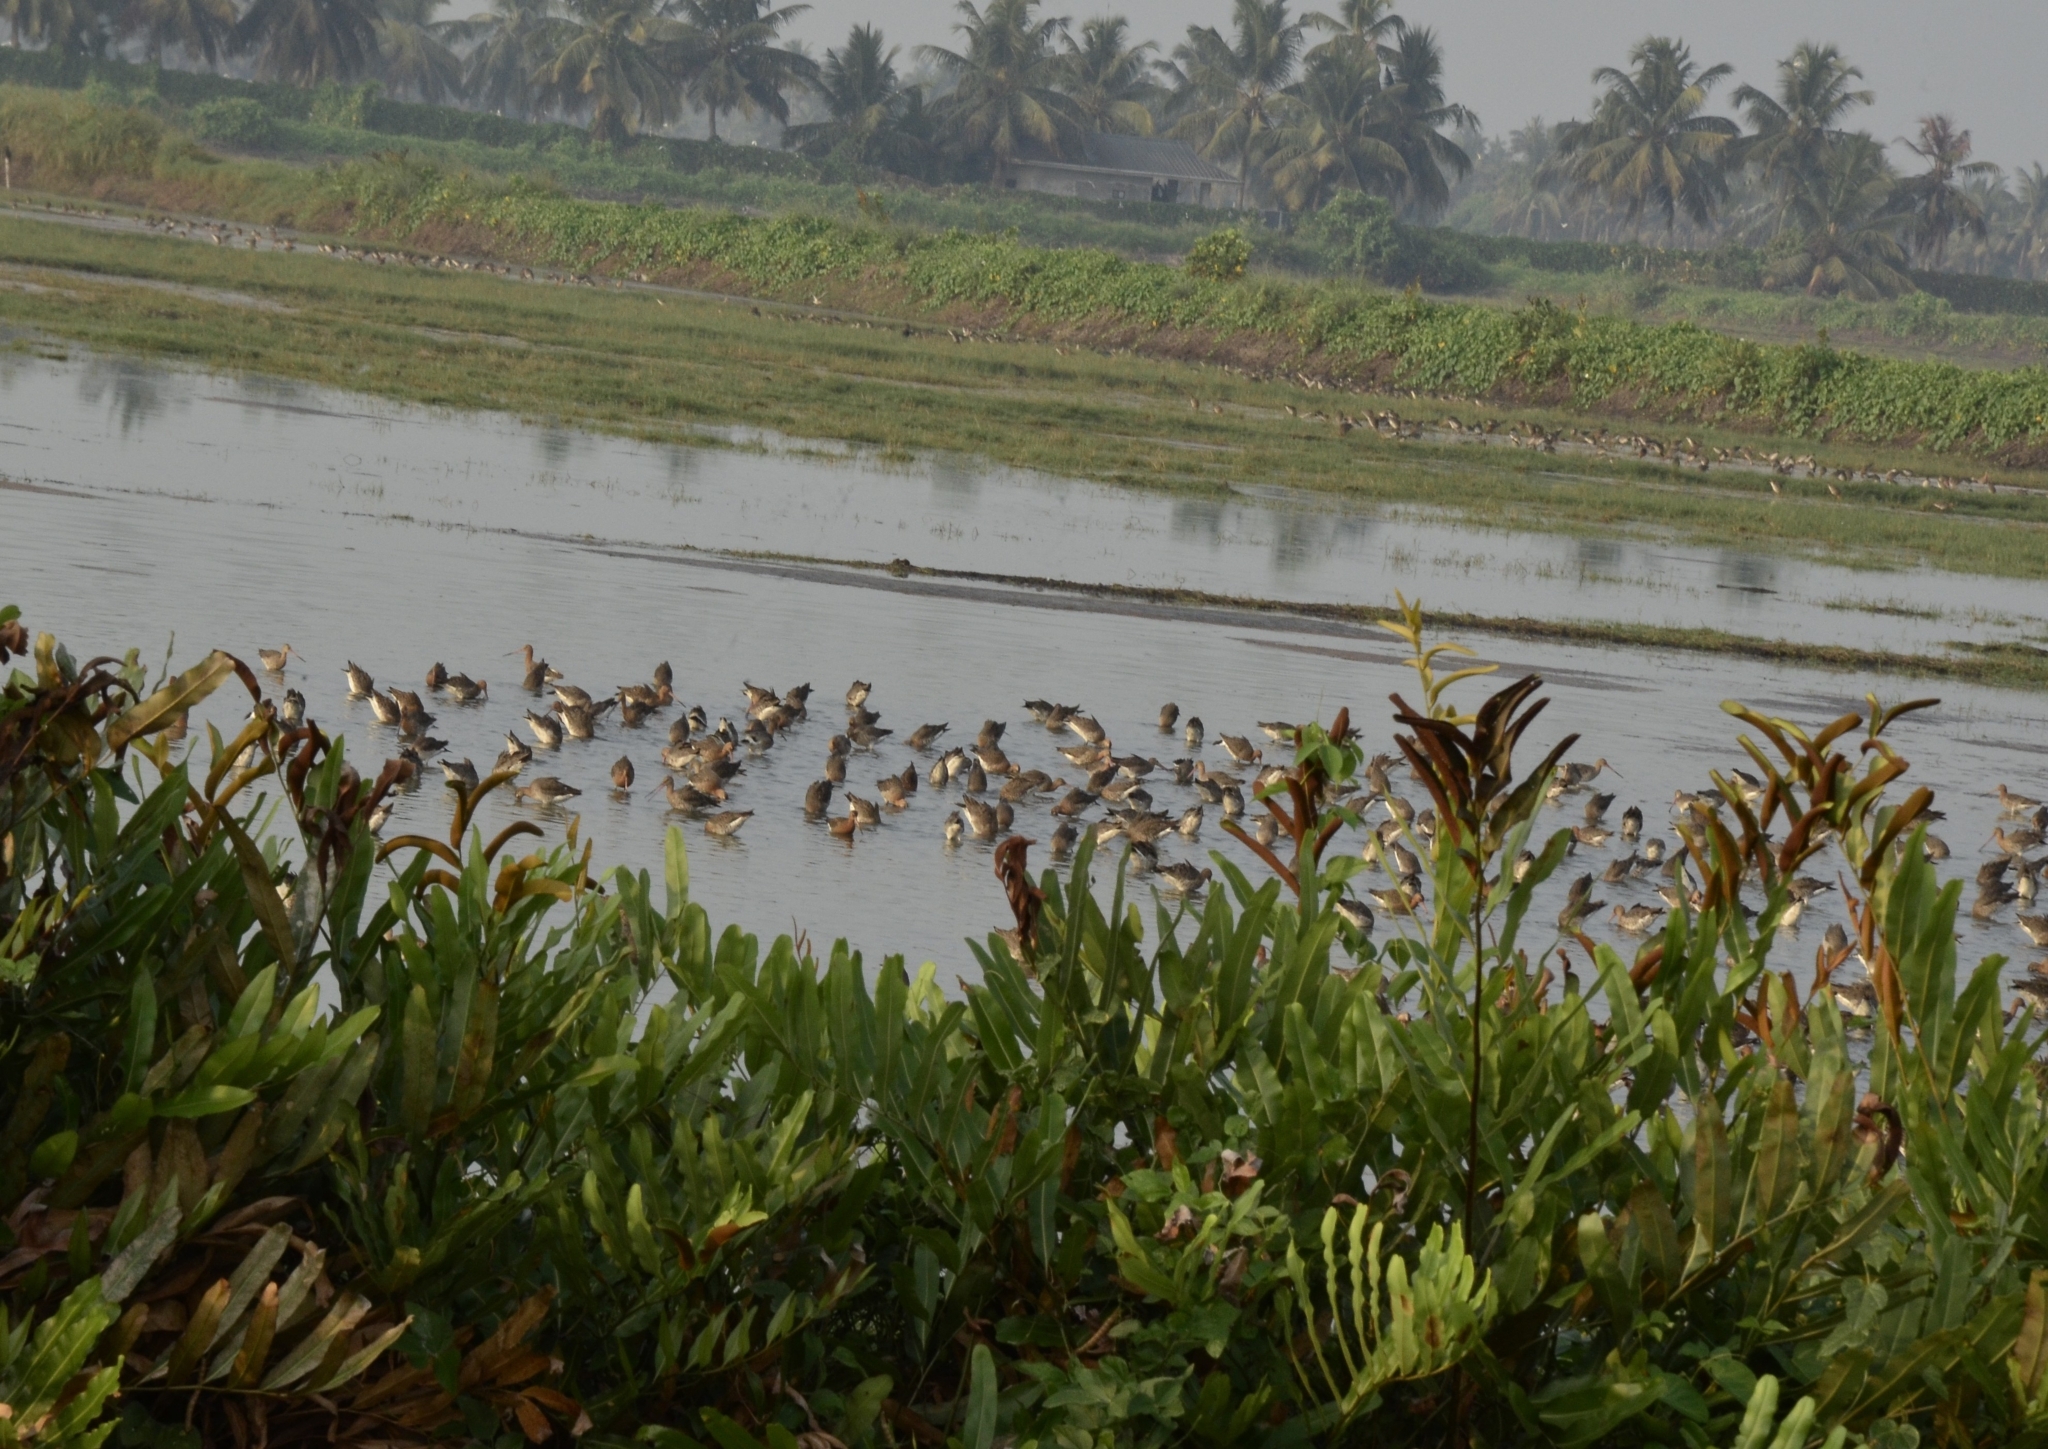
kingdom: Animalia
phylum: Chordata
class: Aves
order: Charadriiformes
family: Scolopacidae
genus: Limosa
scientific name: Limosa limosa
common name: Black-tailed godwit
